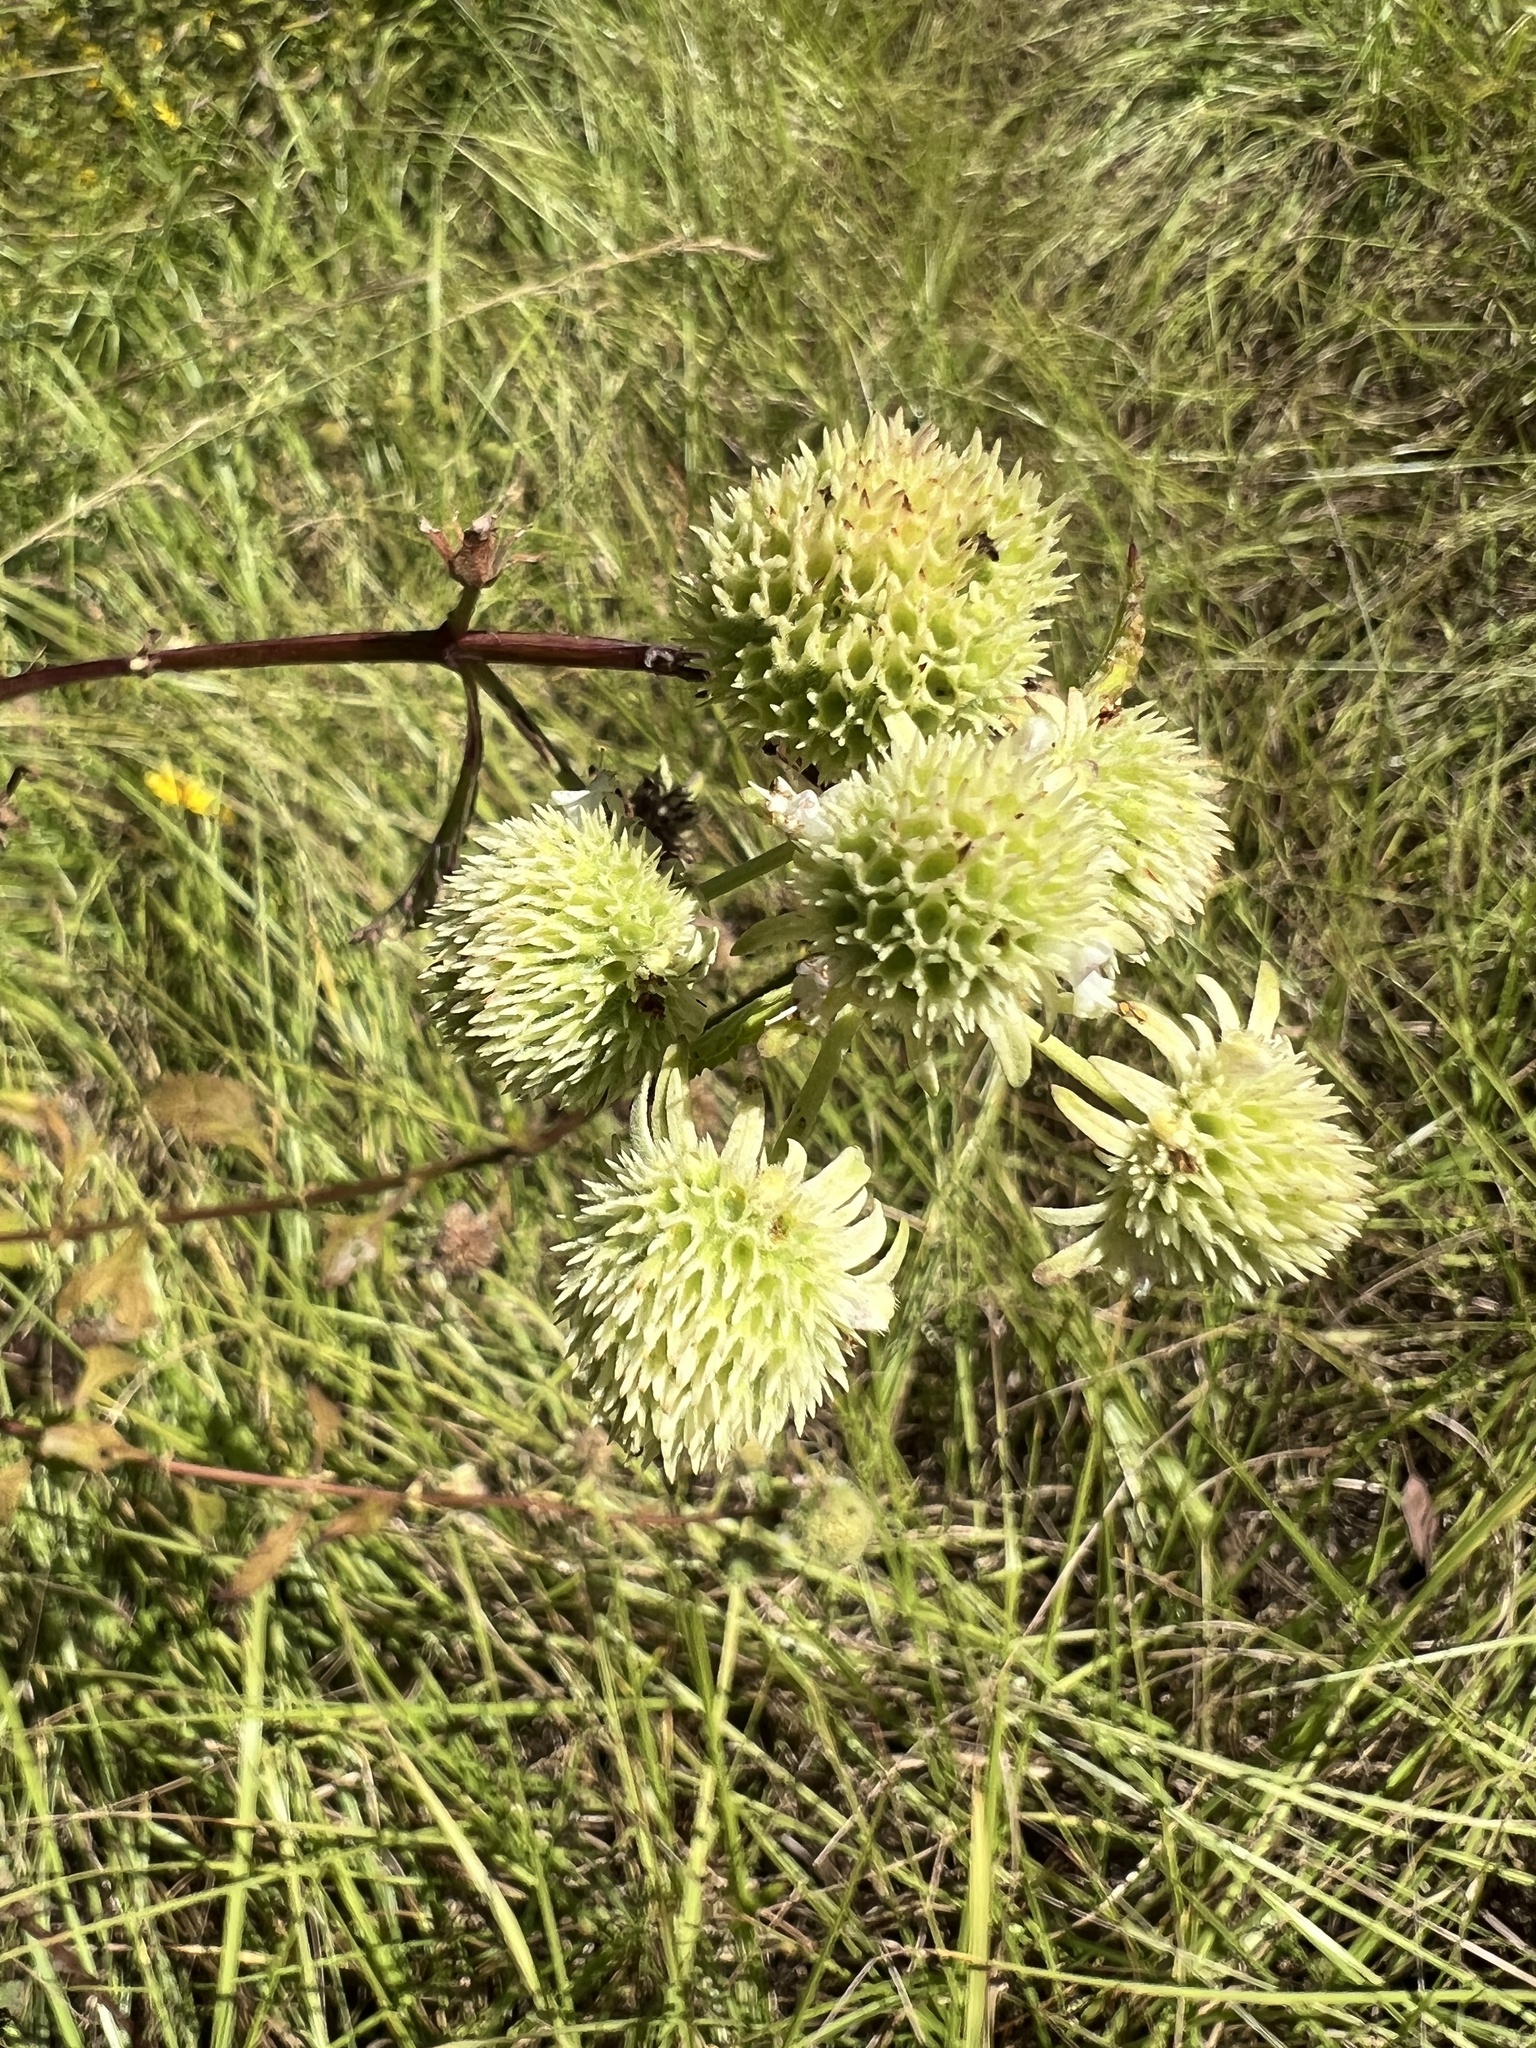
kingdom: Plantae
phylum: Tracheophyta
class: Magnoliopsida
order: Lamiales
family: Lamiaceae
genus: Hyptis
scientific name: Hyptis alata
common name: Cluster bush-mint
